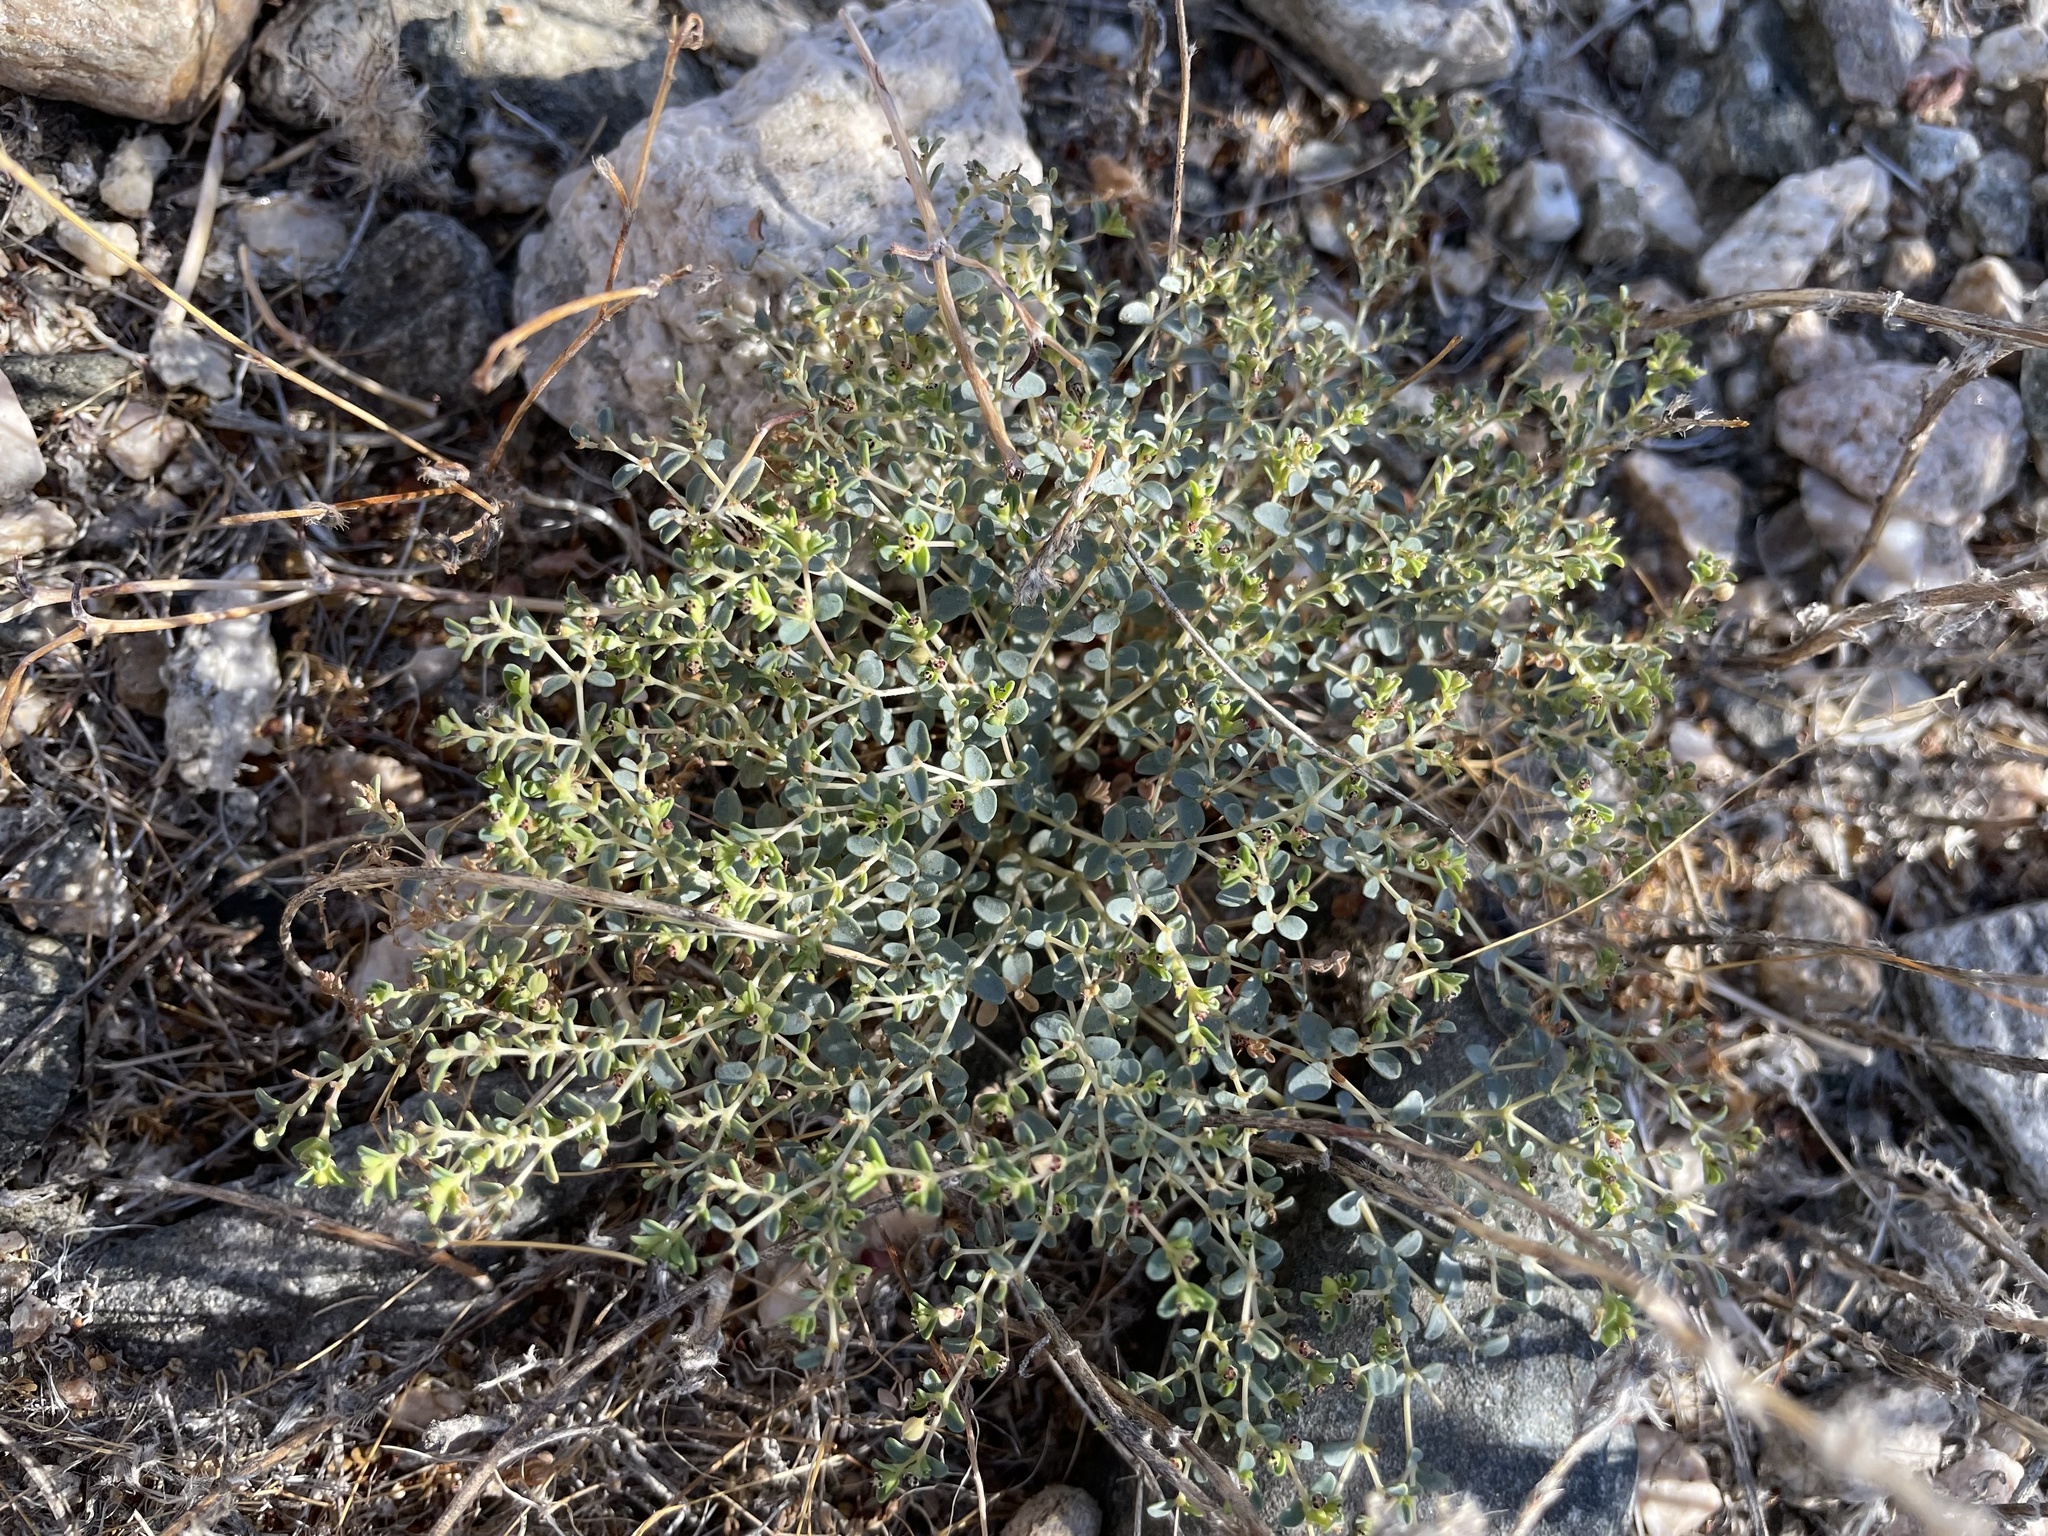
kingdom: Plantae
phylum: Tracheophyta
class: Magnoliopsida
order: Malpighiales
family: Euphorbiaceae
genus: Euphorbia
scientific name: Euphorbia polycarpa
